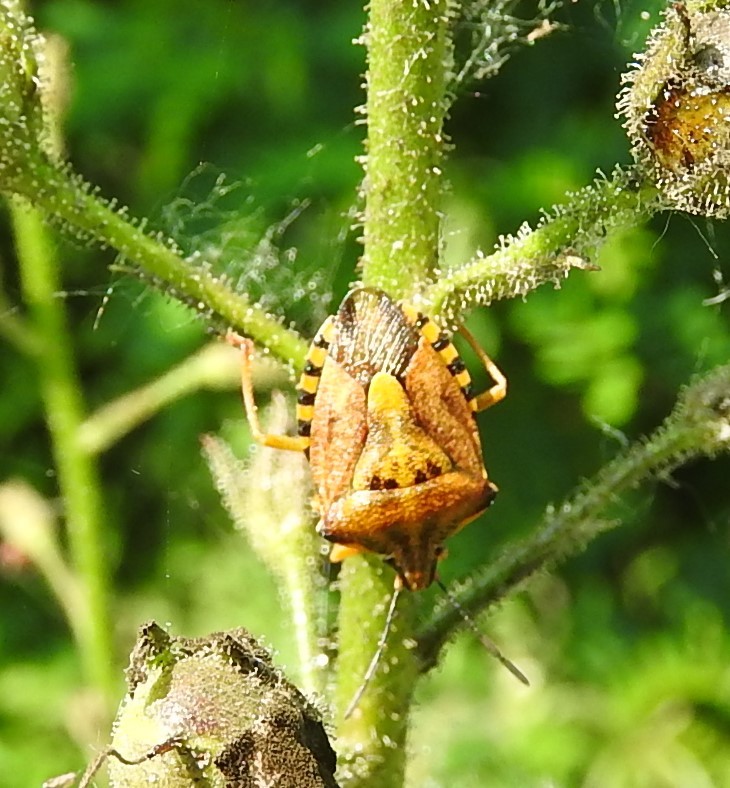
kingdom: Animalia
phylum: Arthropoda
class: Insecta
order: Hemiptera
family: Pentatomidae
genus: Carpocoris
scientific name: Carpocoris mediterraneus
